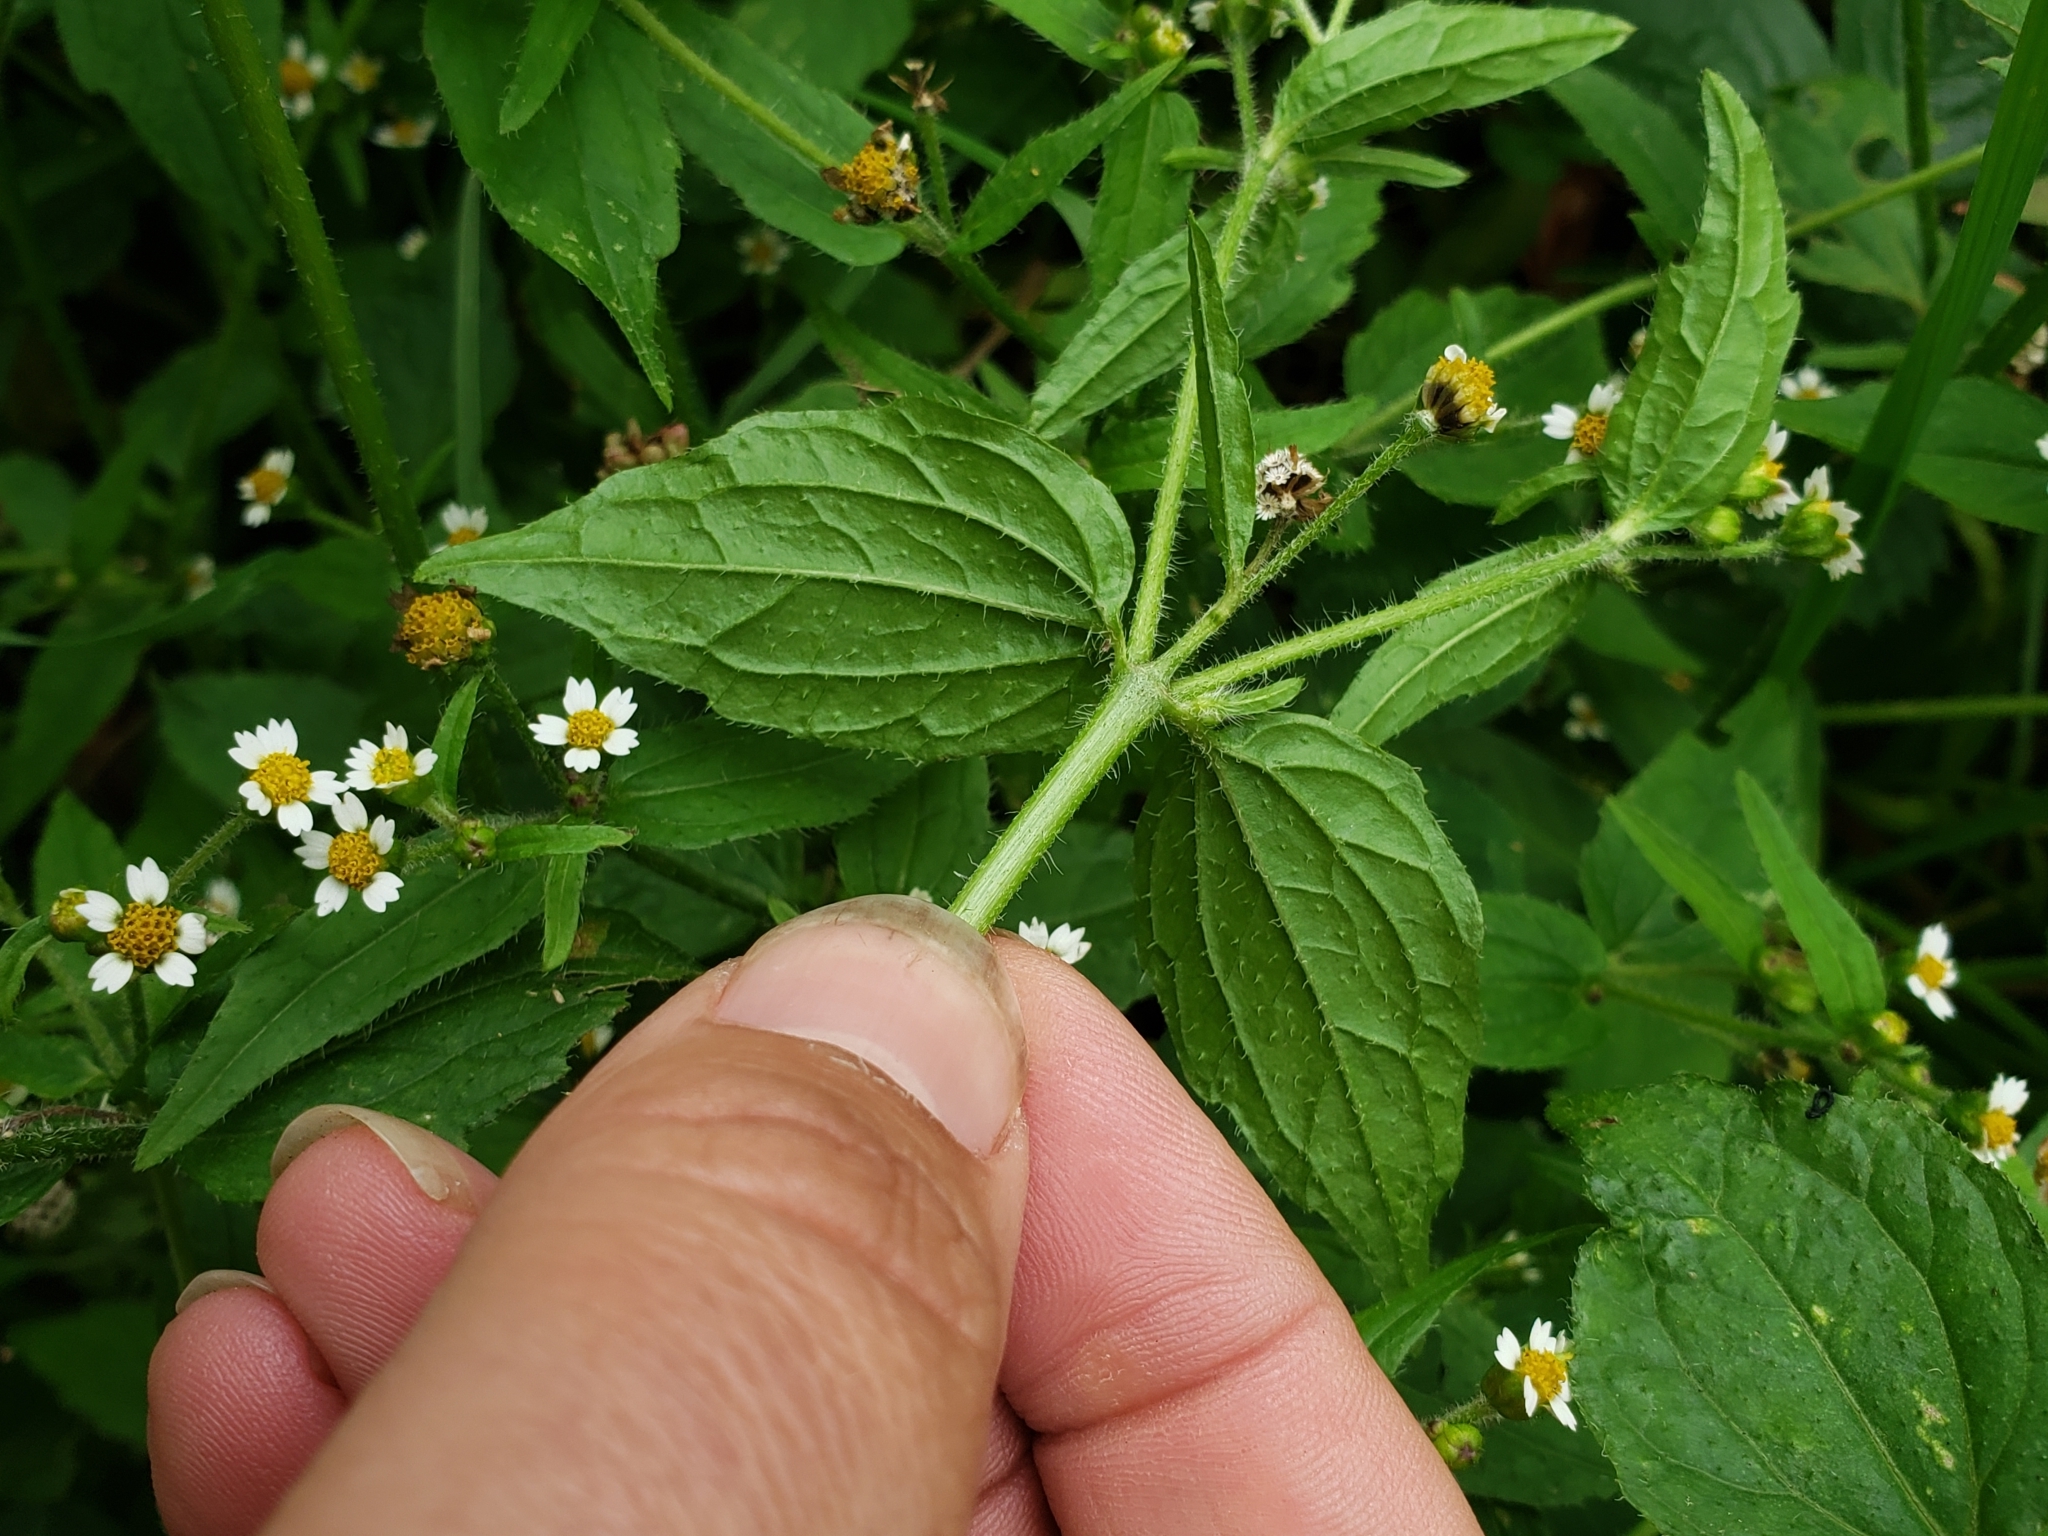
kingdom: Plantae
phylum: Tracheophyta
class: Magnoliopsida
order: Asterales
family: Asteraceae
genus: Galinsoga
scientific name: Galinsoga quadriradiata
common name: Shaggy soldier
